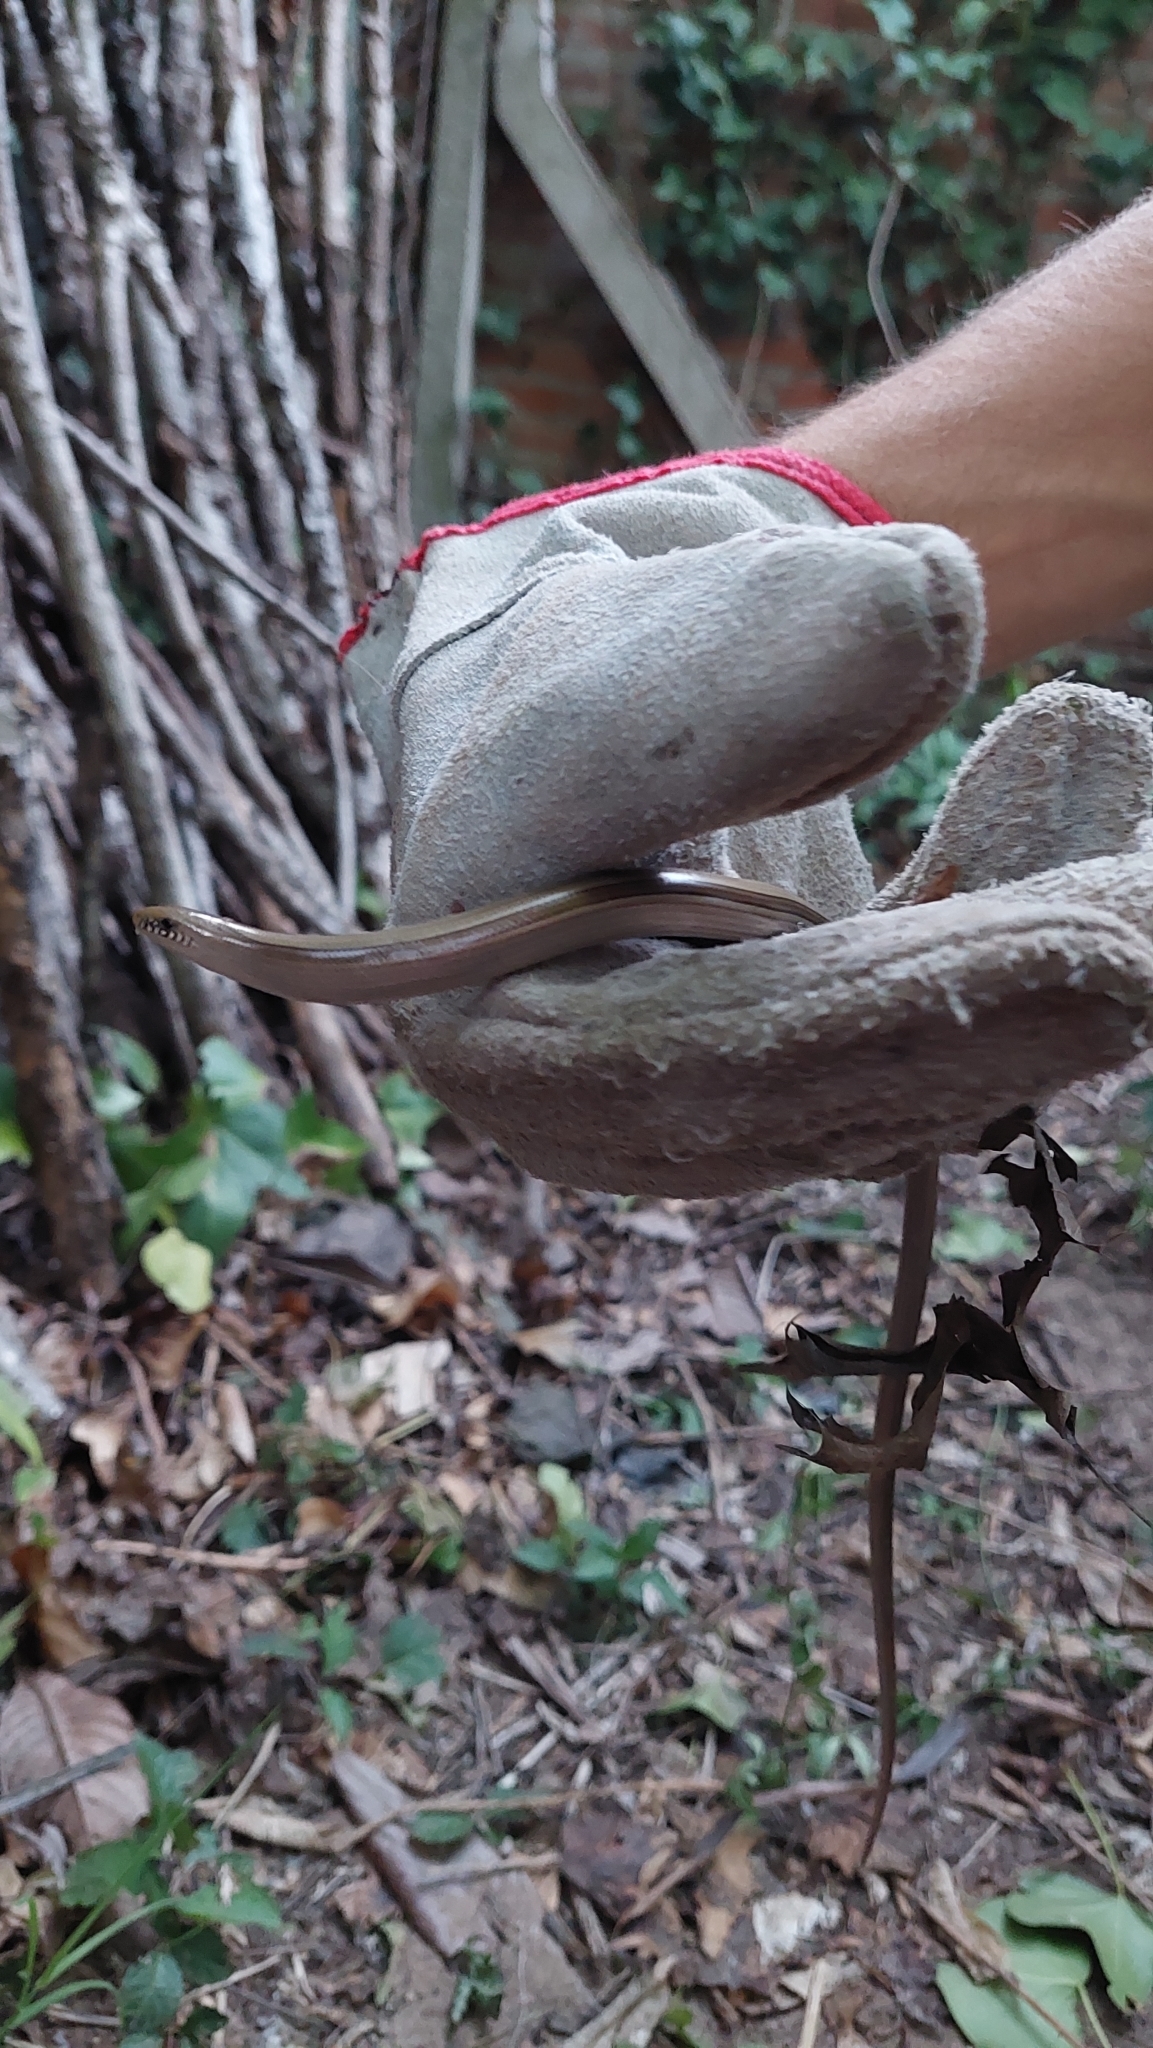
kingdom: Animalia
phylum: Chordata
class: Squamata
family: Diploglossidae
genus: Ophiodes
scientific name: Ophiodes intermedius
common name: Middle worm lizard
